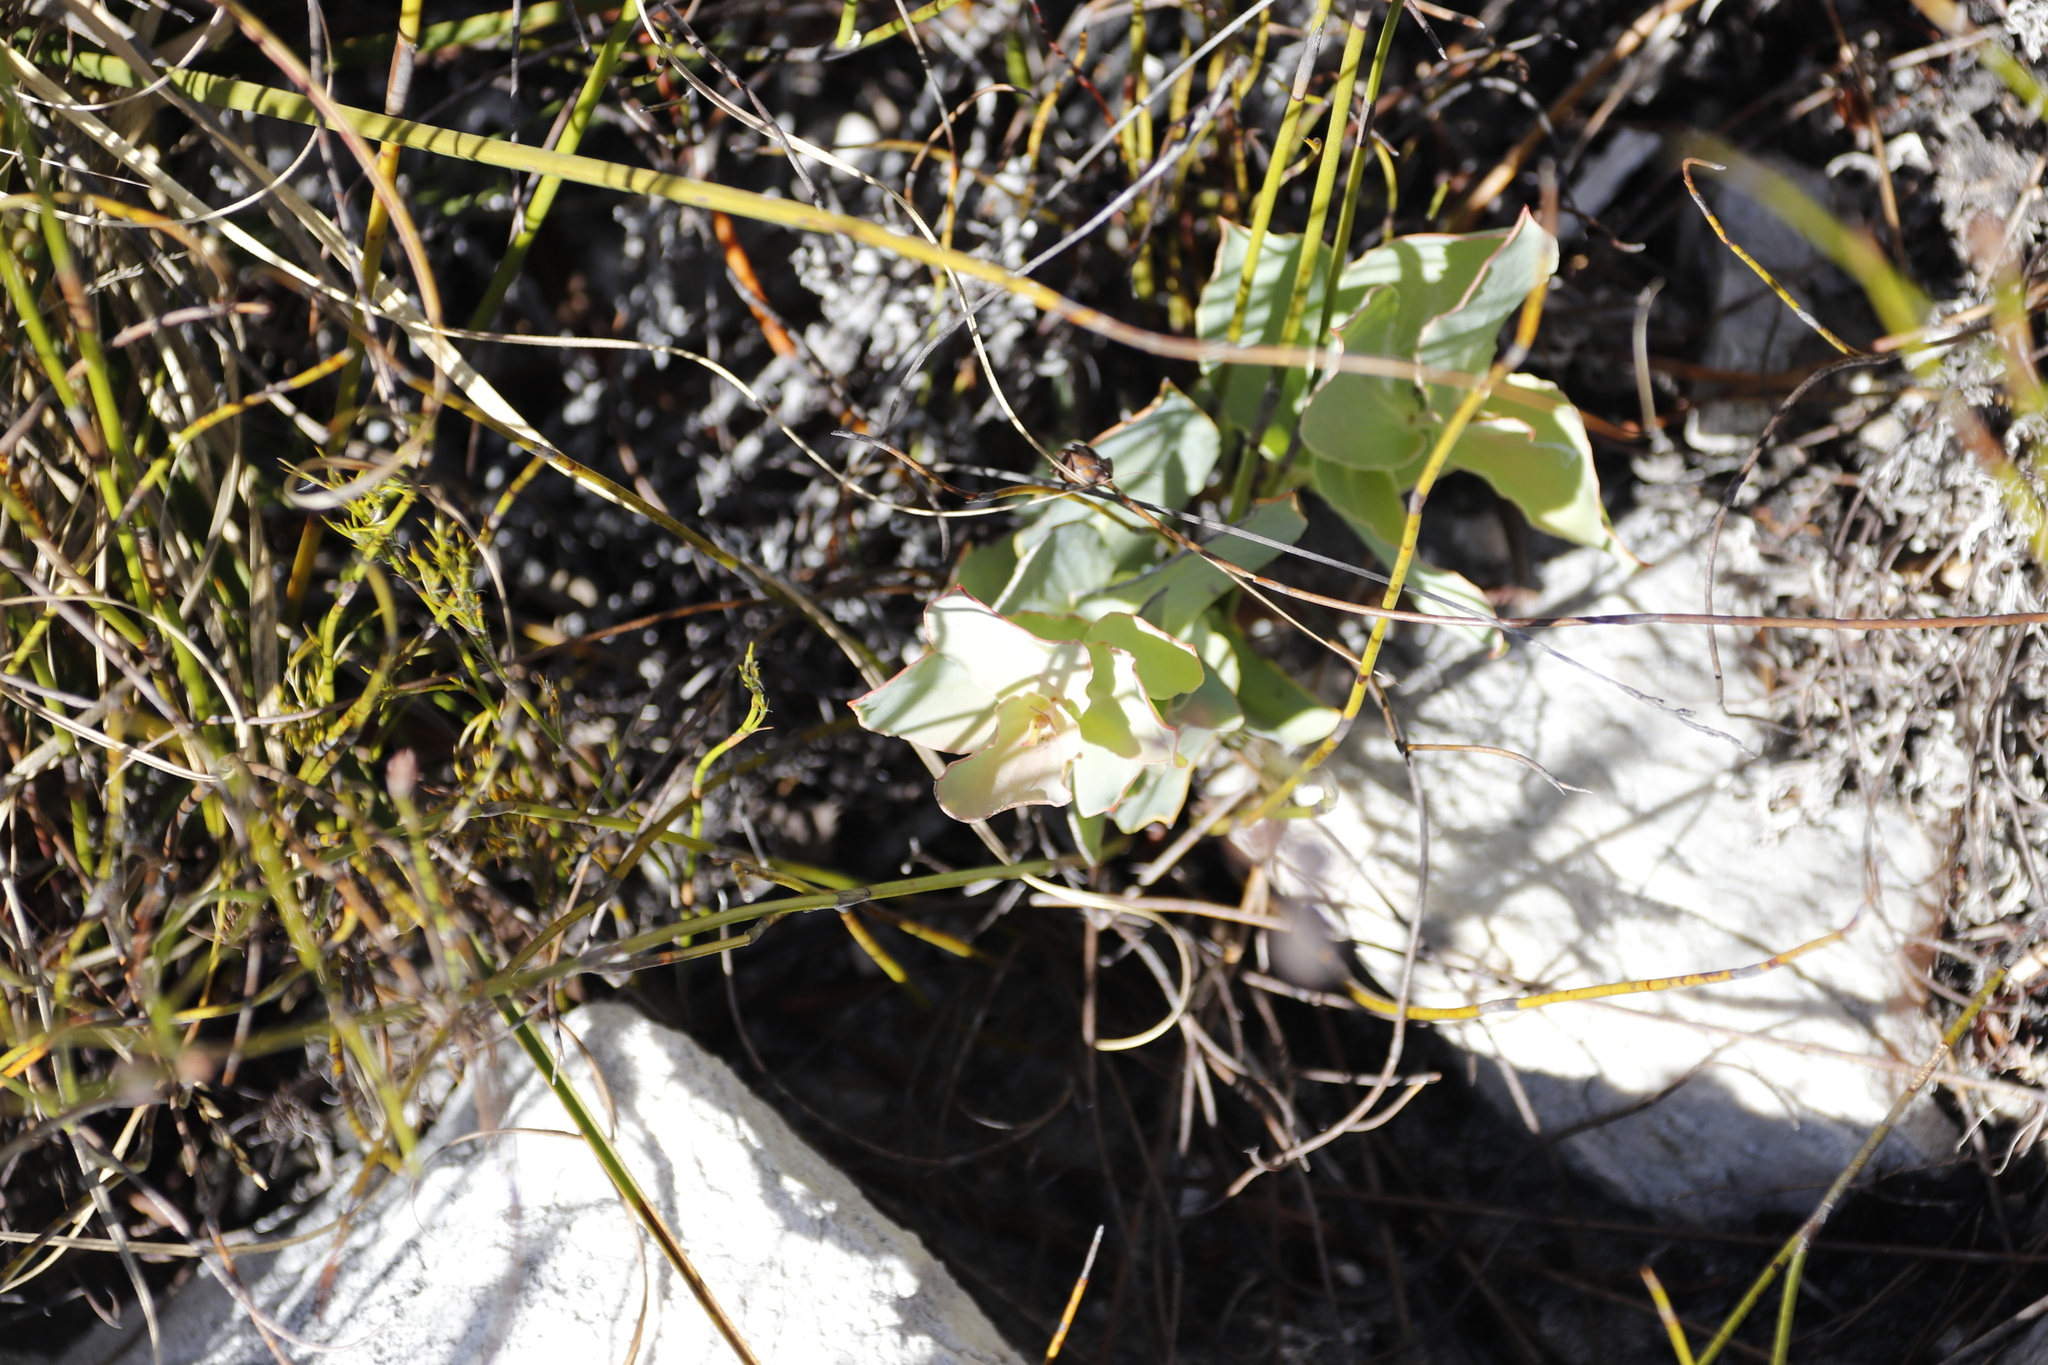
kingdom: Plantae
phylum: Tracheophyta
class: Magnoliopsida
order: Proteales
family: Proteaceae
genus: Protea
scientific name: Protea amplexicaulis
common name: Clasping-leaf sugarbush
